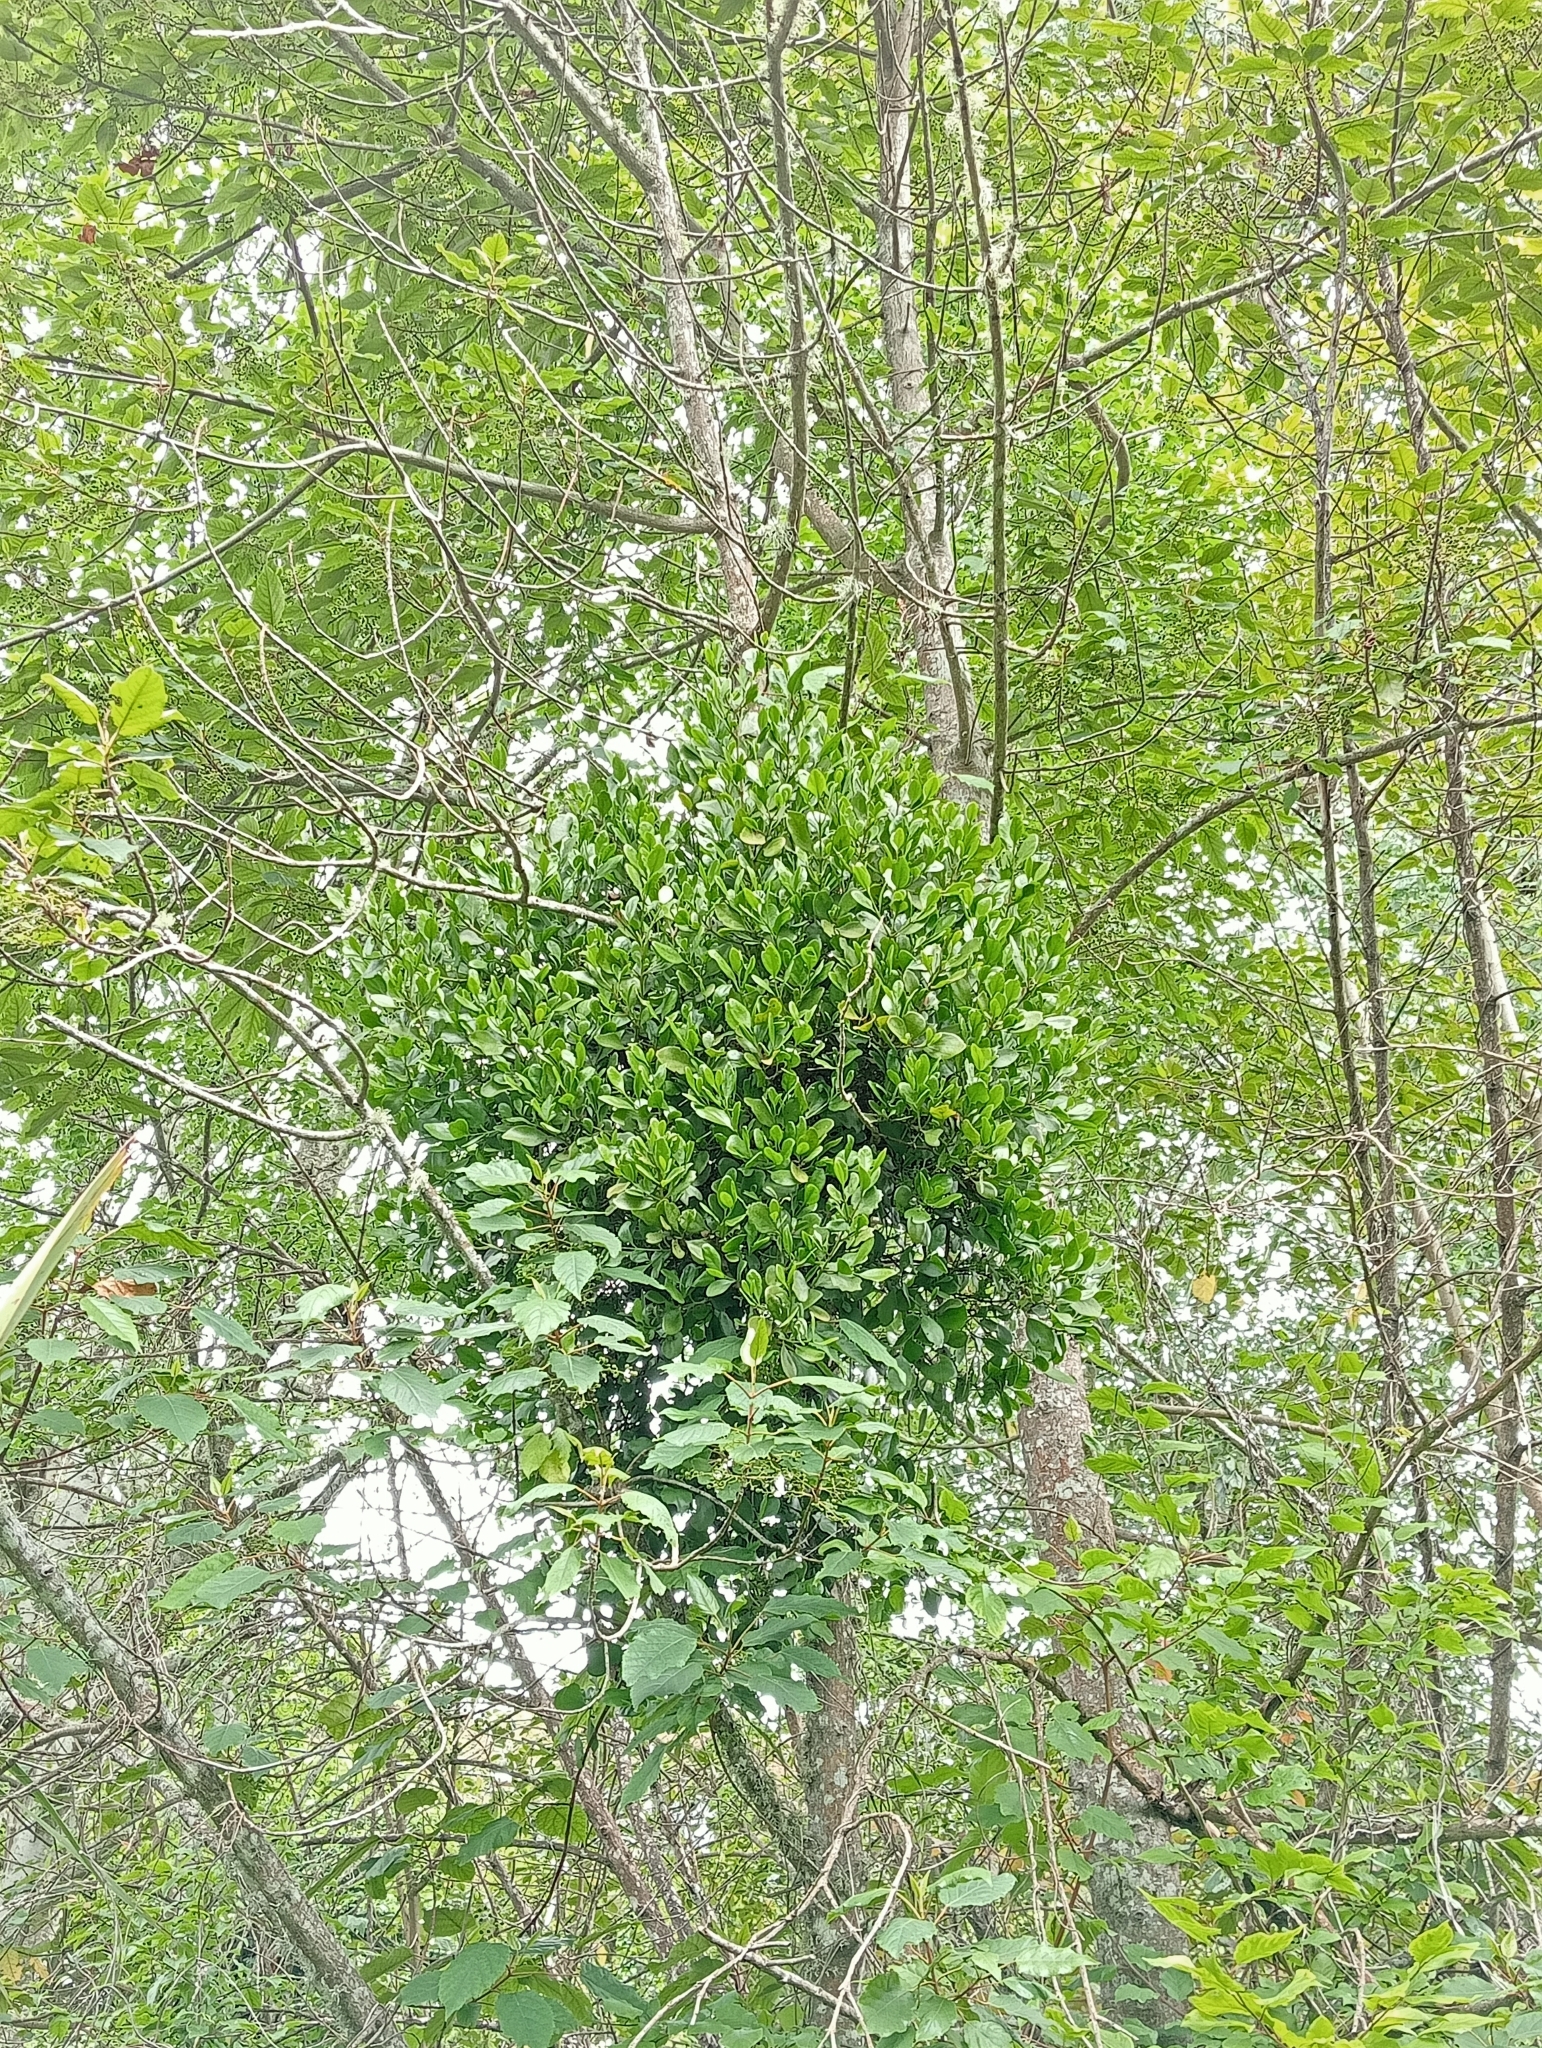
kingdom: Plantae
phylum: Tracheophyta
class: Magnoliopsida
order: Santalales
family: Loranthaceae
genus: Ileostylus
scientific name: Ileostylus micranthus
